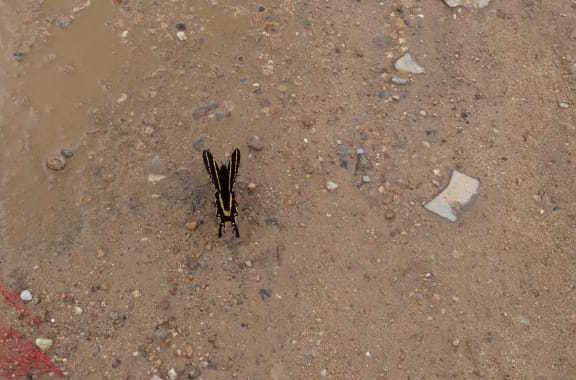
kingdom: Animalia
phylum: Arthropoda
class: Insecta
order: Lepidoptera
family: Papilionidae
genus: Papilio
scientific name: Papilio garamas
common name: Magnificent swallowtail
